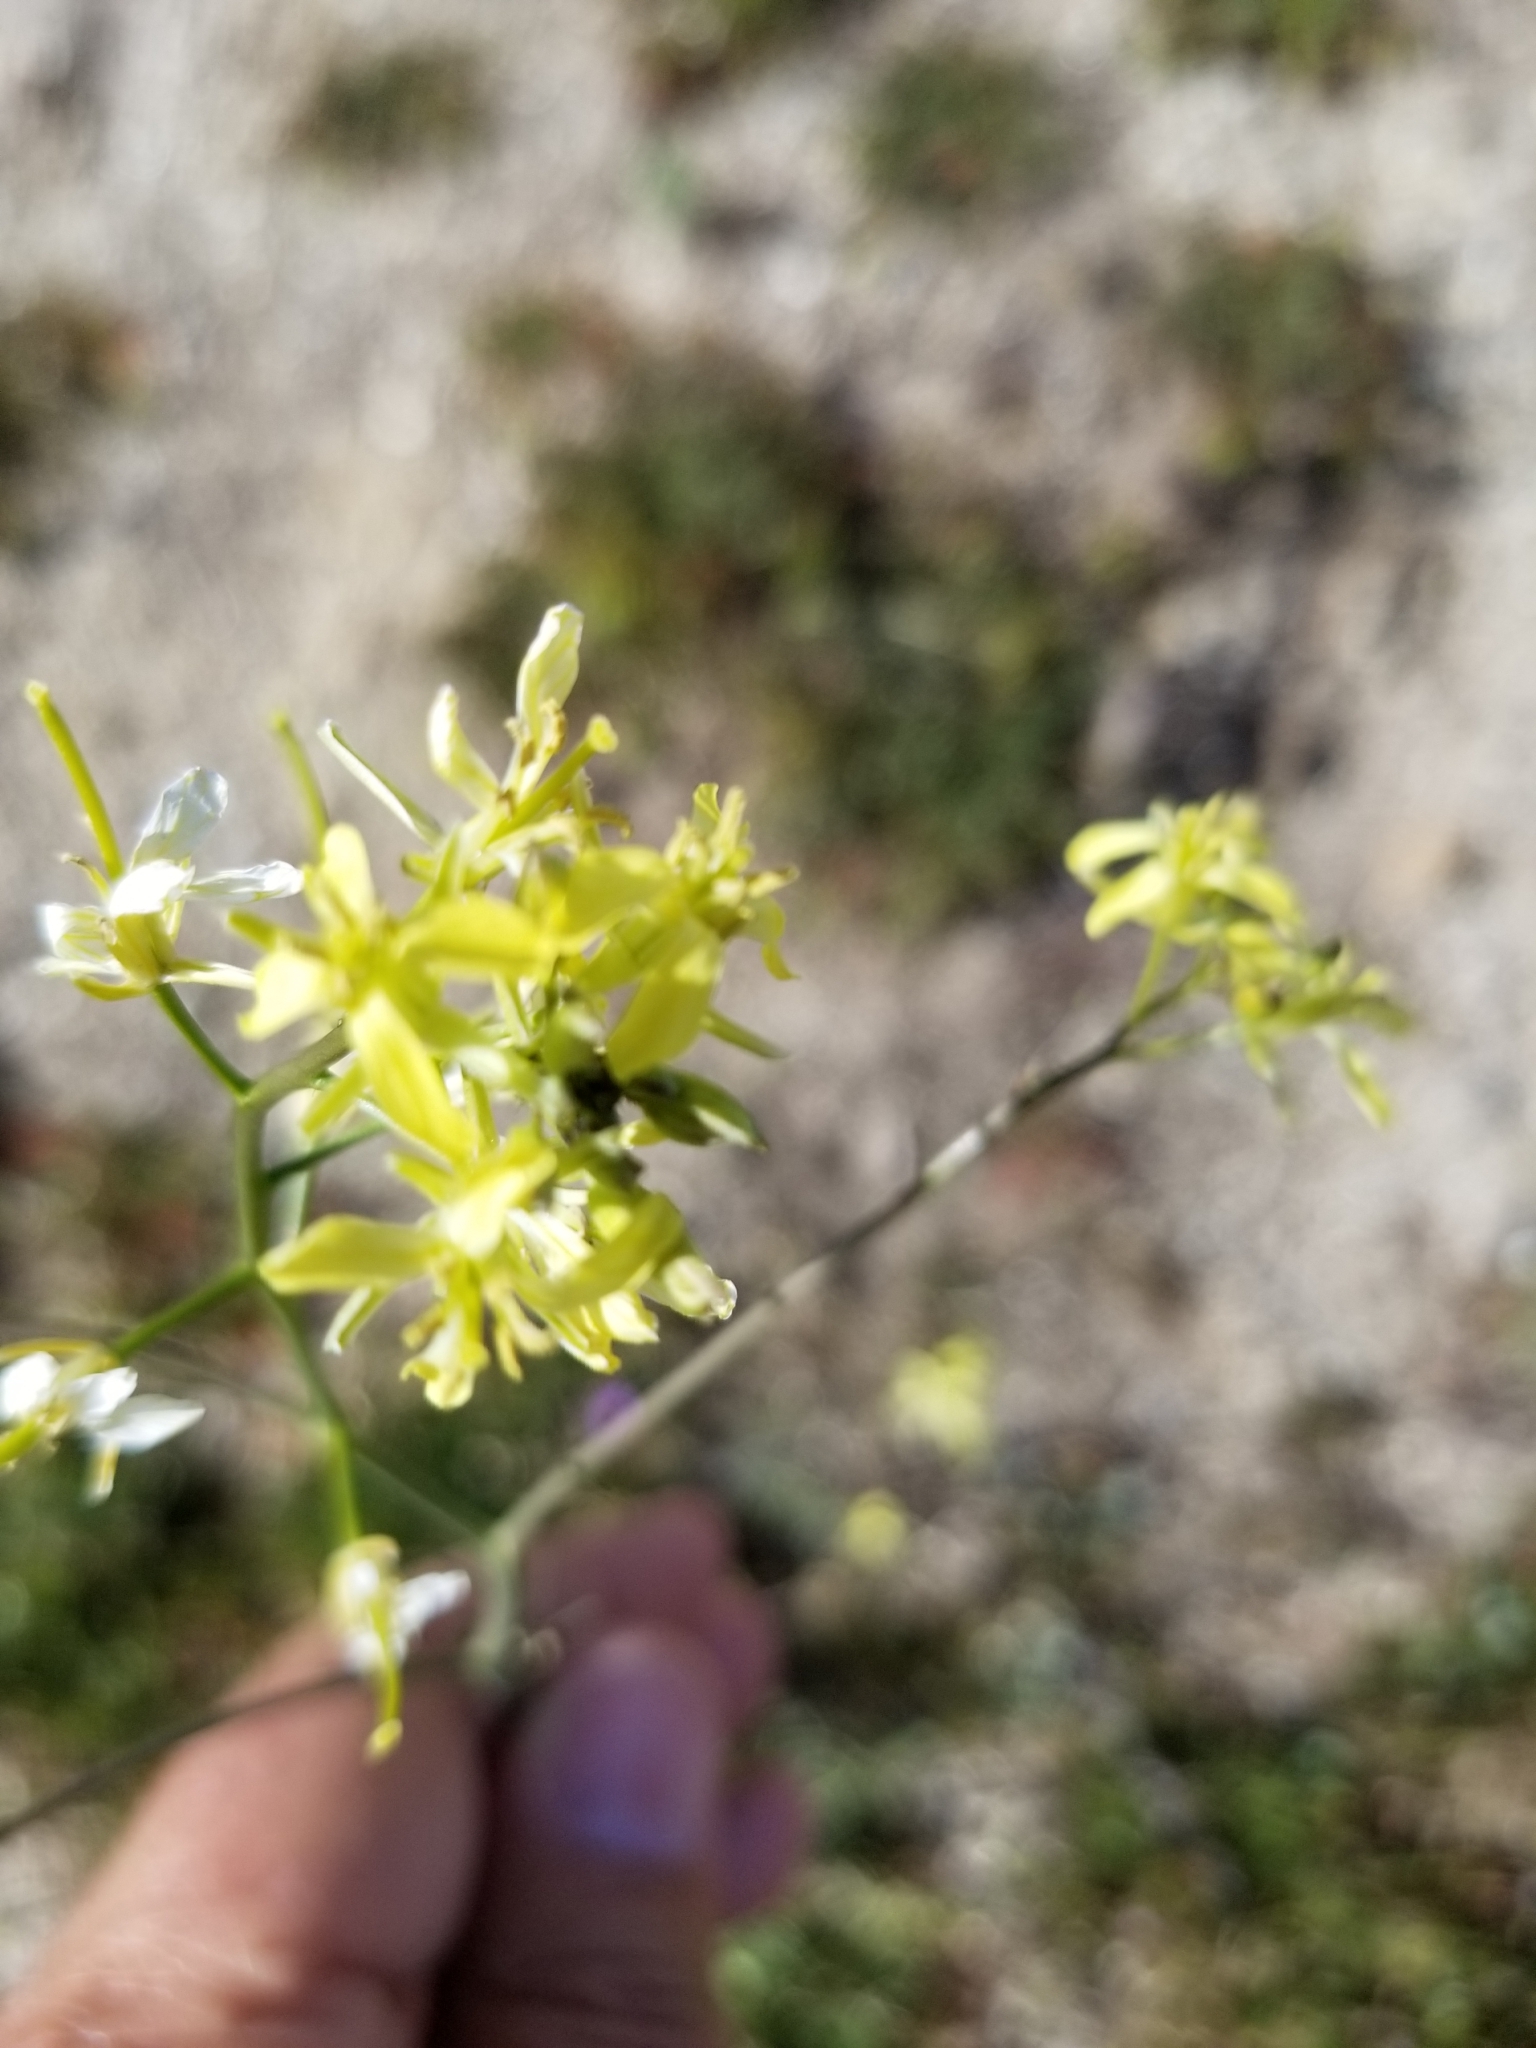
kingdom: Plantae
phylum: Tracheophyta
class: Magnoliopsida
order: Brassicales
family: Brassicaceae
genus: Sisymbrium
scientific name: Sisymbrium altissimum
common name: Tall rocket
